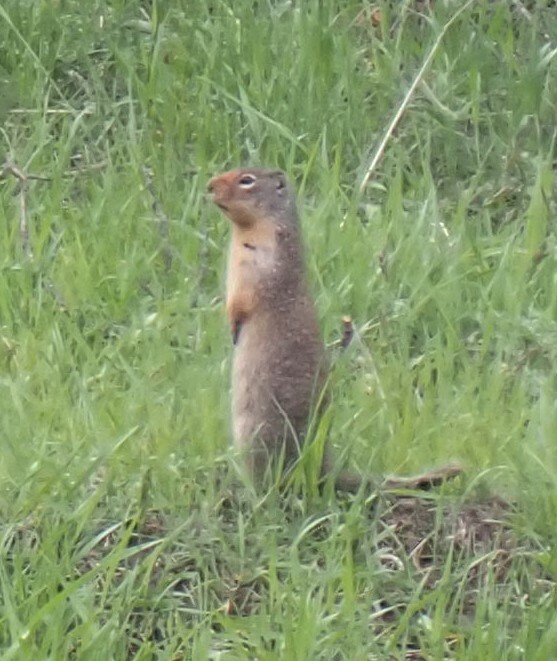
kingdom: Animalia
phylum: Chordata
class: Mammalia
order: Rodentia
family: Sciuridae
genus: Urocitellus
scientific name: Urocitellus columbianus
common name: Columbian ground squirrel
